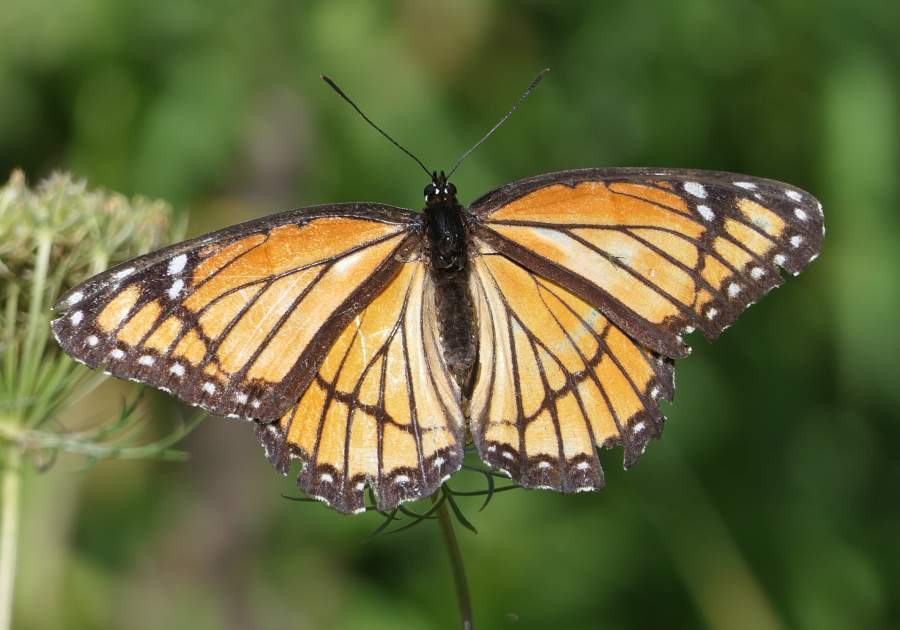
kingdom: Animalia
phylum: Arthropoda
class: Insecta
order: Lepidoptera
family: Nymphalidae
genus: Limenitis
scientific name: Limenitis archippus
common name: Viceroy
